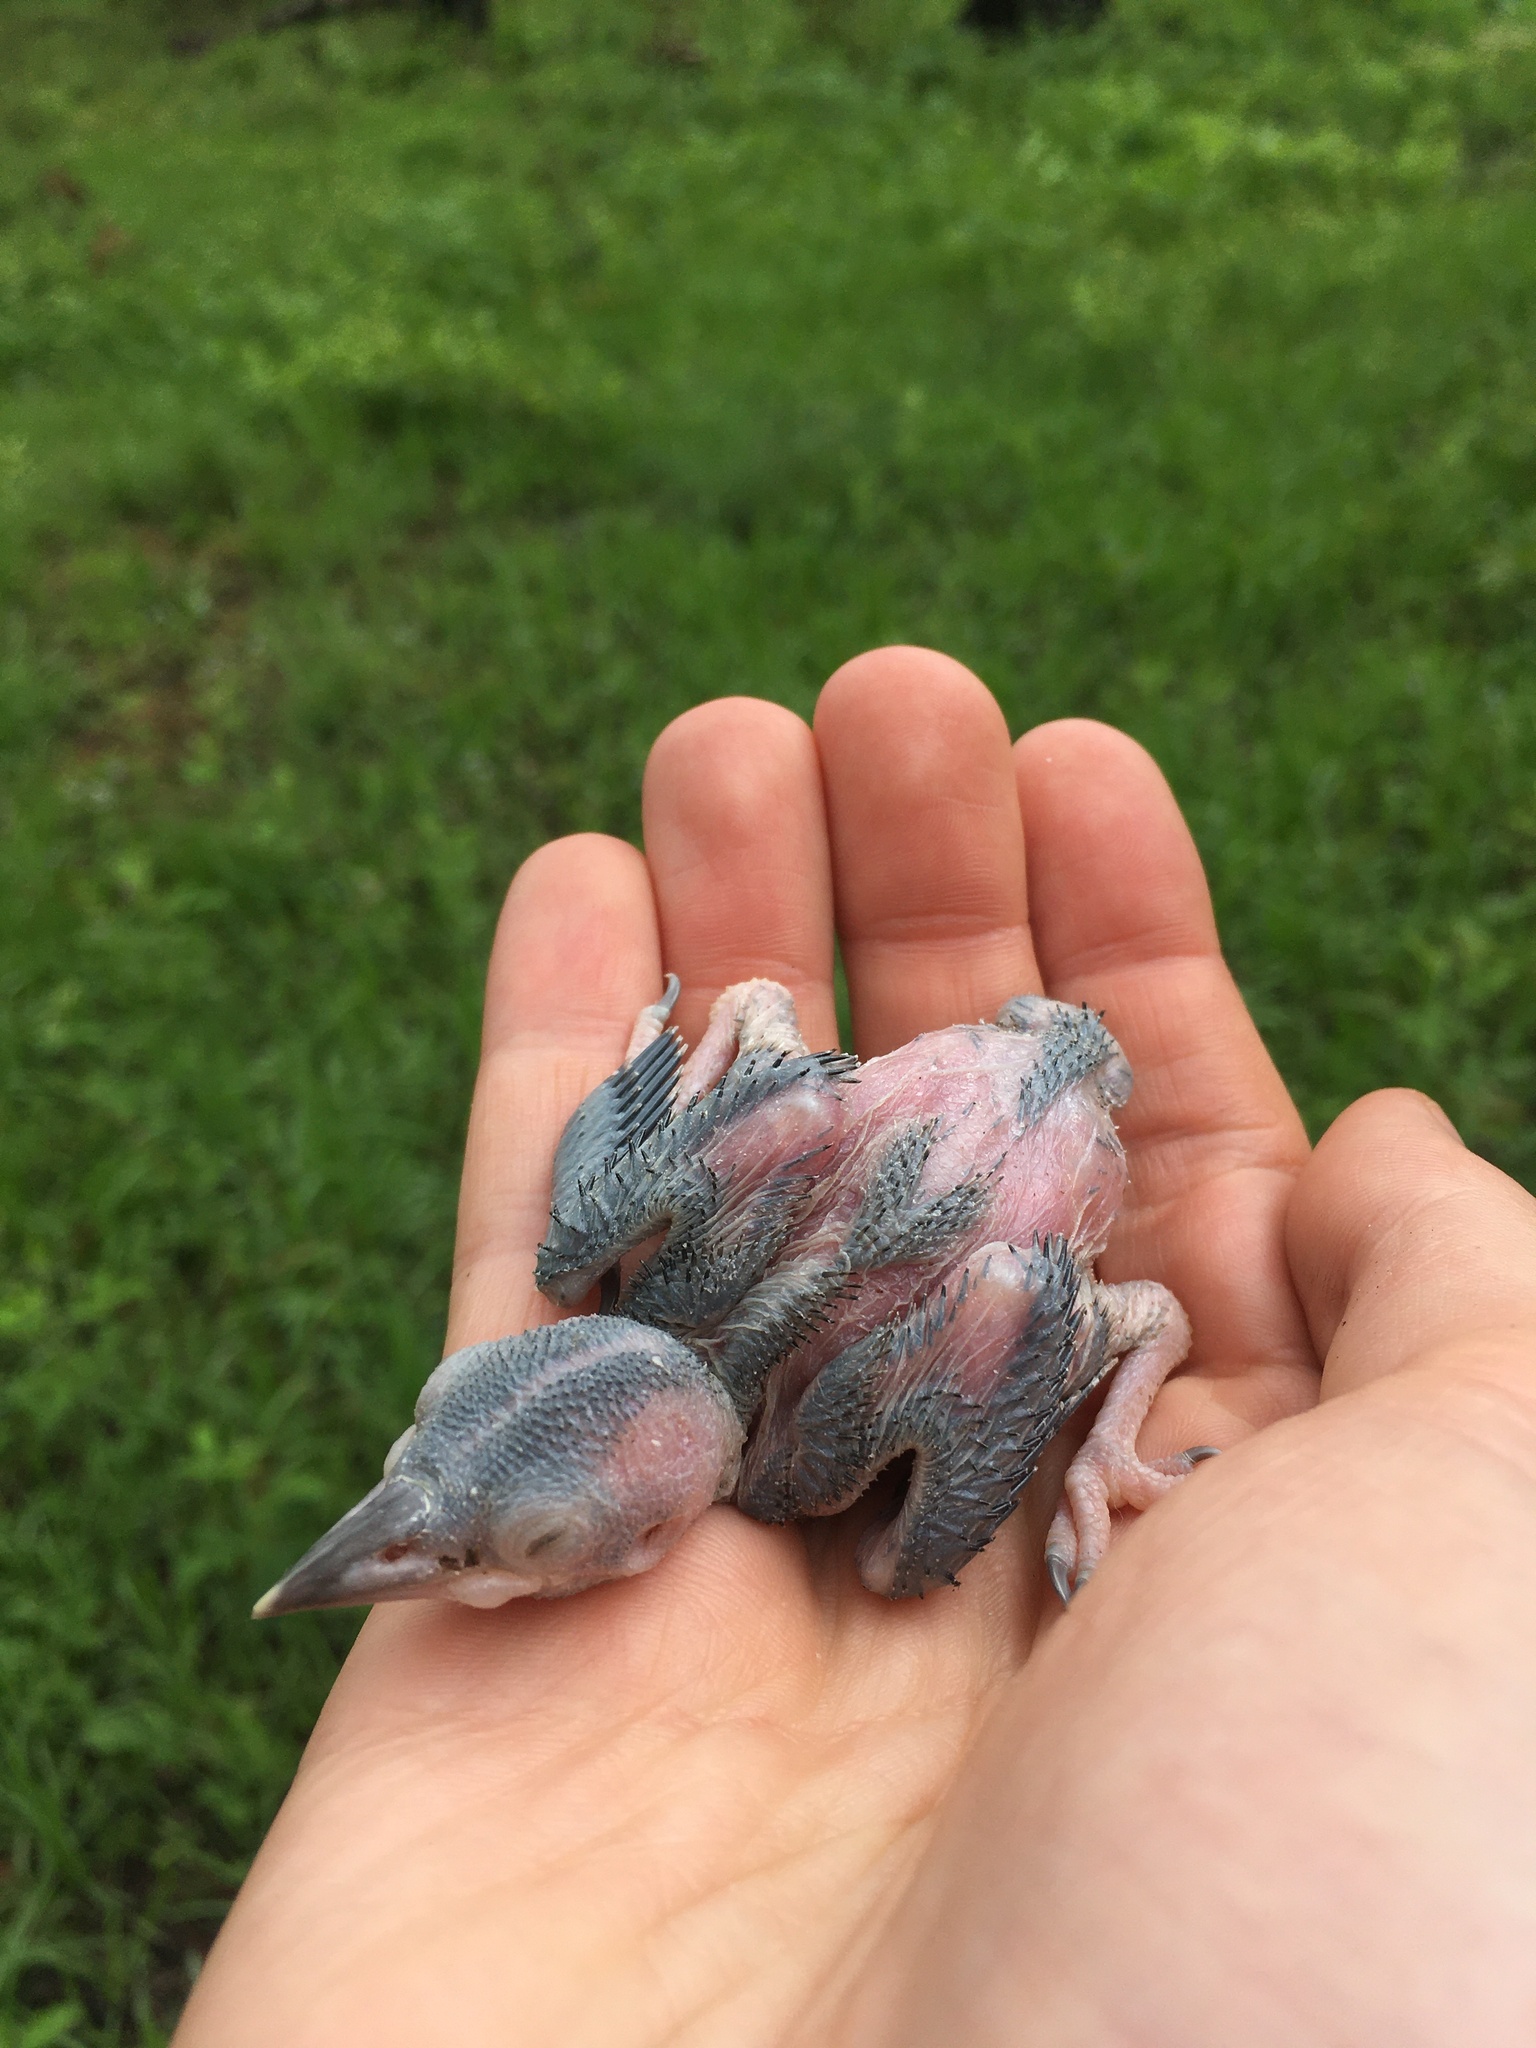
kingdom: Animalia
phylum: Chordata
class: Aves
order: Piciformes
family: Picidae
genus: Leuconotopicus
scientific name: Leuconotopicus borealis
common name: Red-cockaded woodpecker
